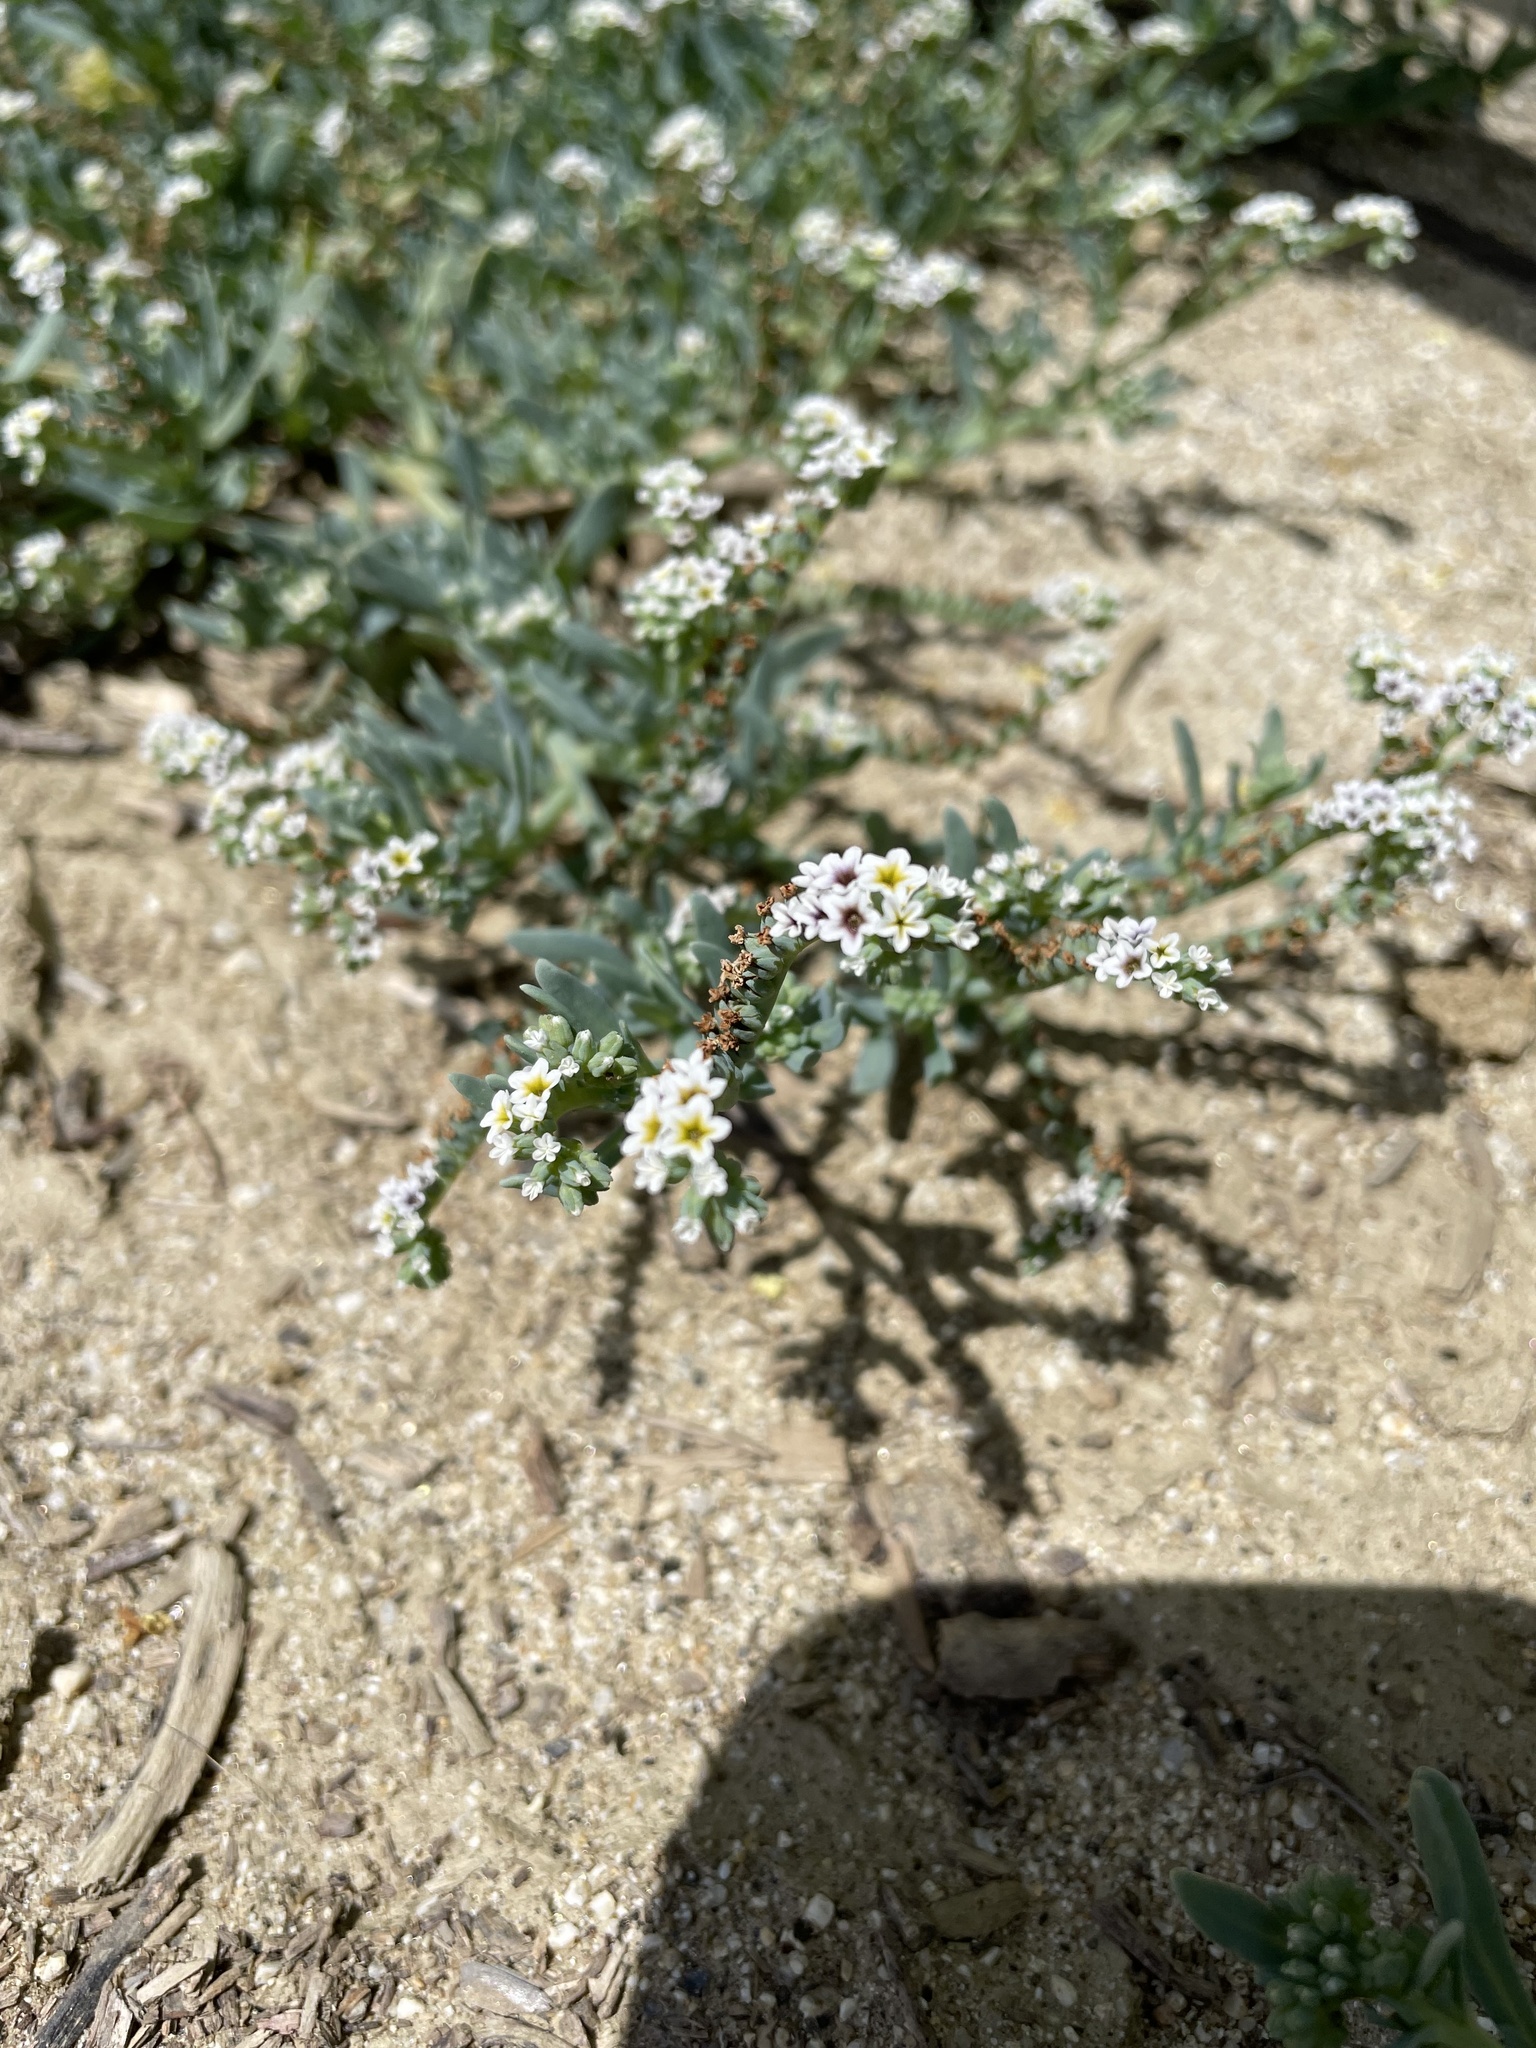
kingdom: Plantae
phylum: Tracheophyta
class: Magnoliopsida
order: Boraginales
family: Heliotropiaceae
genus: Heliotropium
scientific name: Heliotropium curassavicum
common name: Seaside heliotrope
